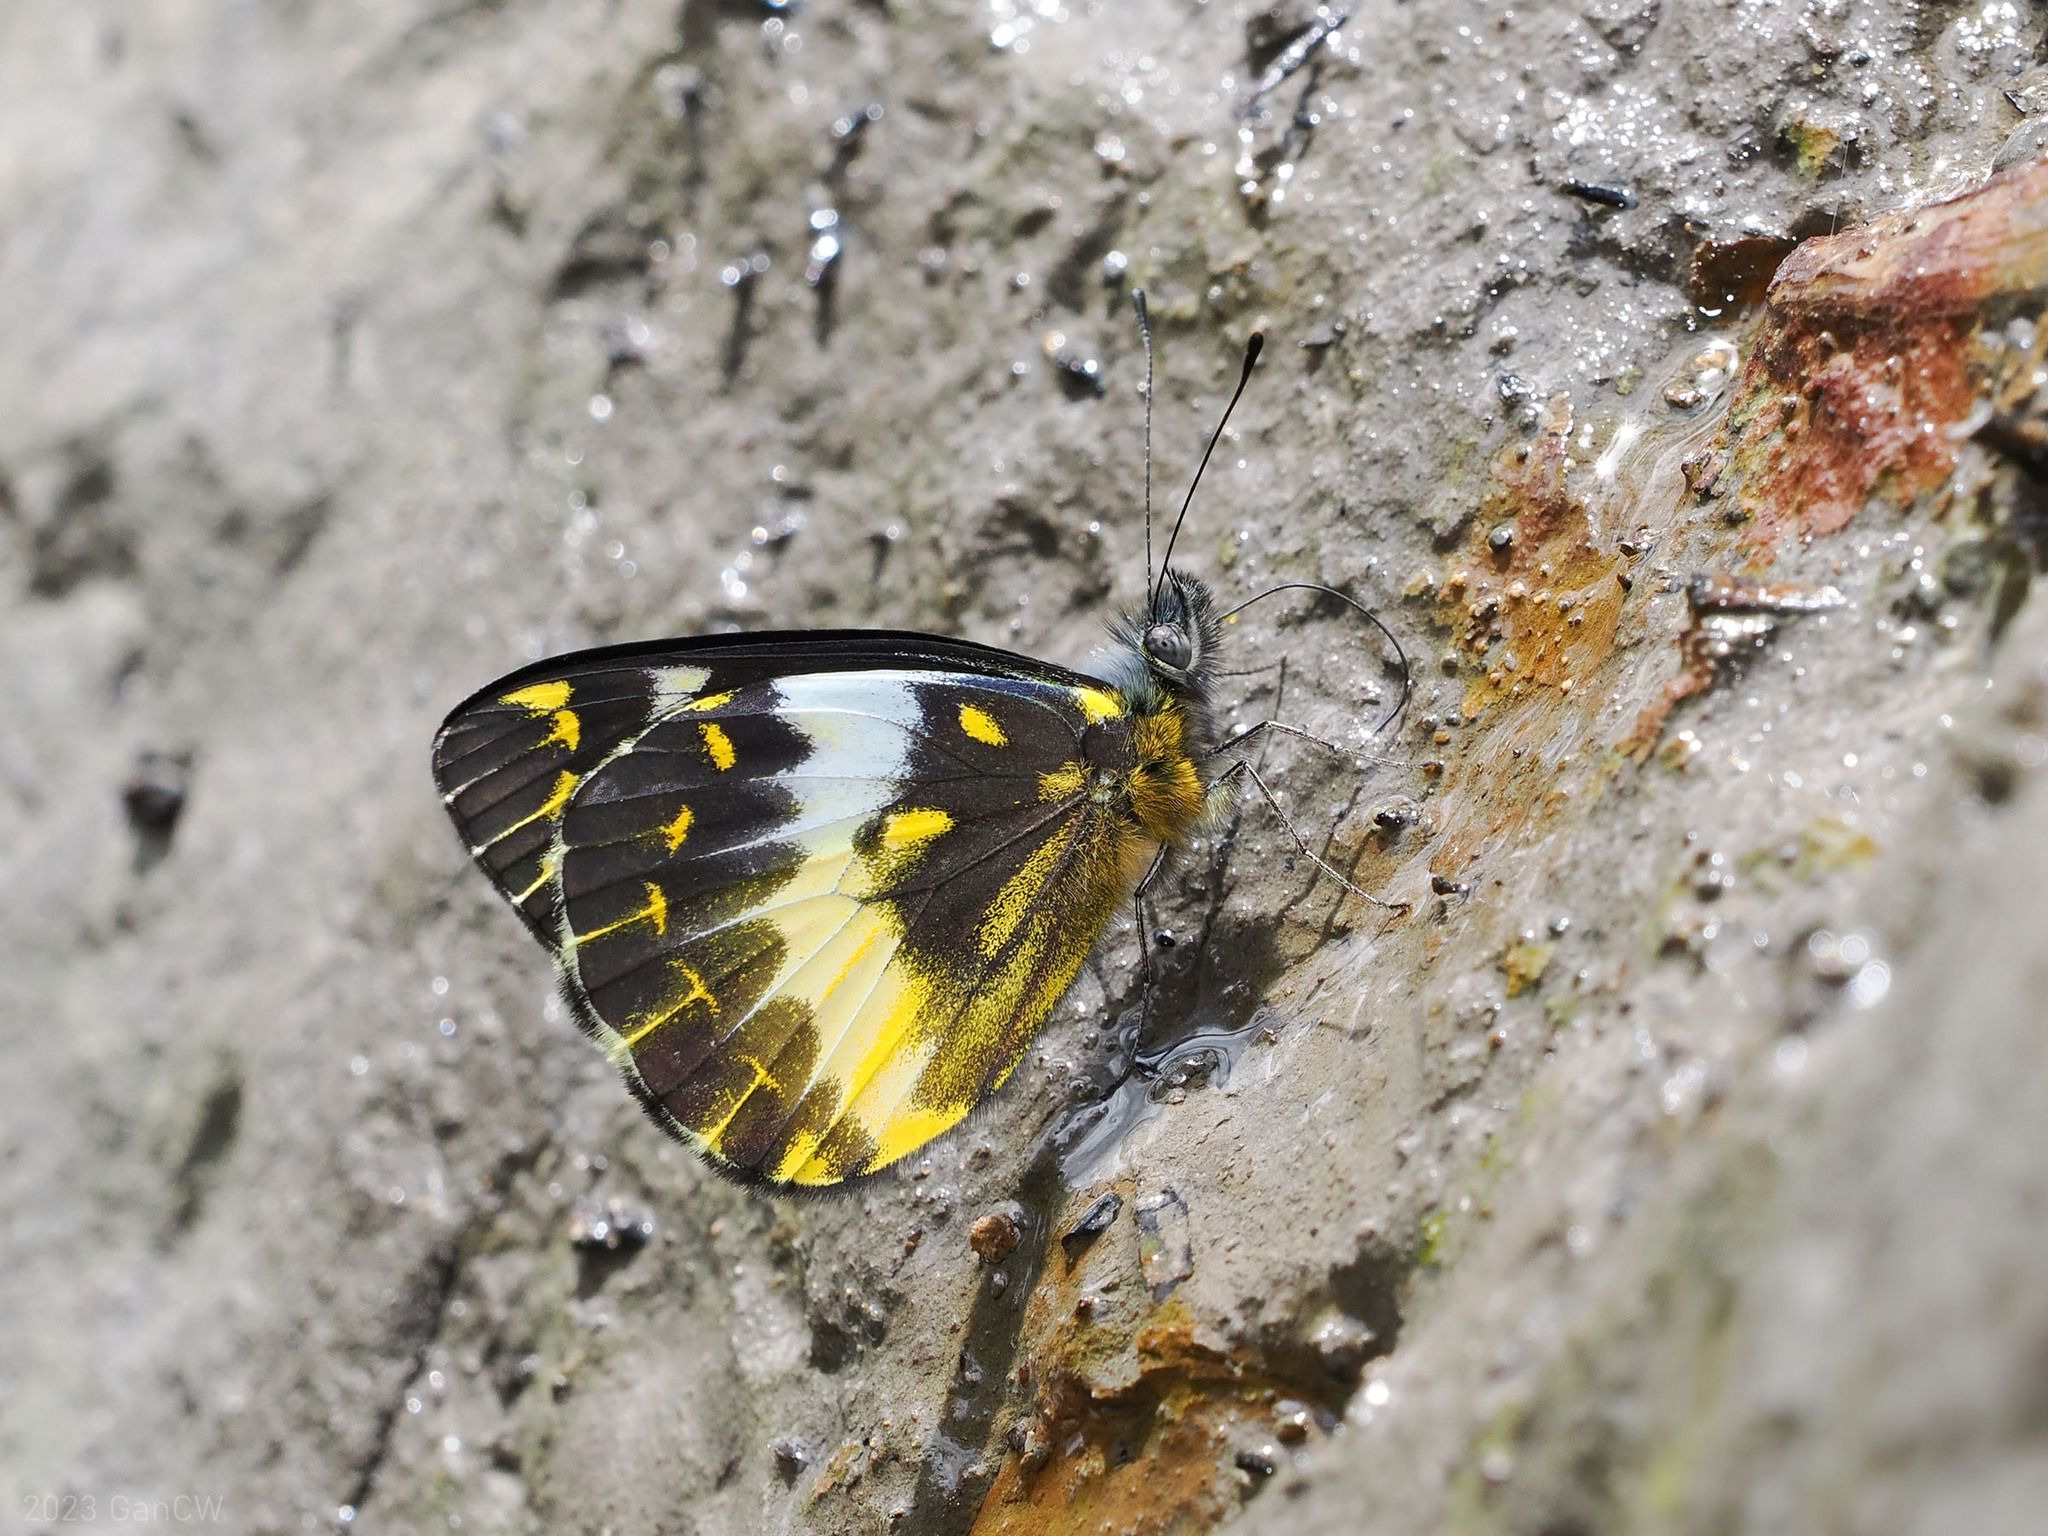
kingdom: Animalia
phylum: Arthropoda
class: Insecta
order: Lepidoptera
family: Pieridae
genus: Delias
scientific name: Delias fascelis
